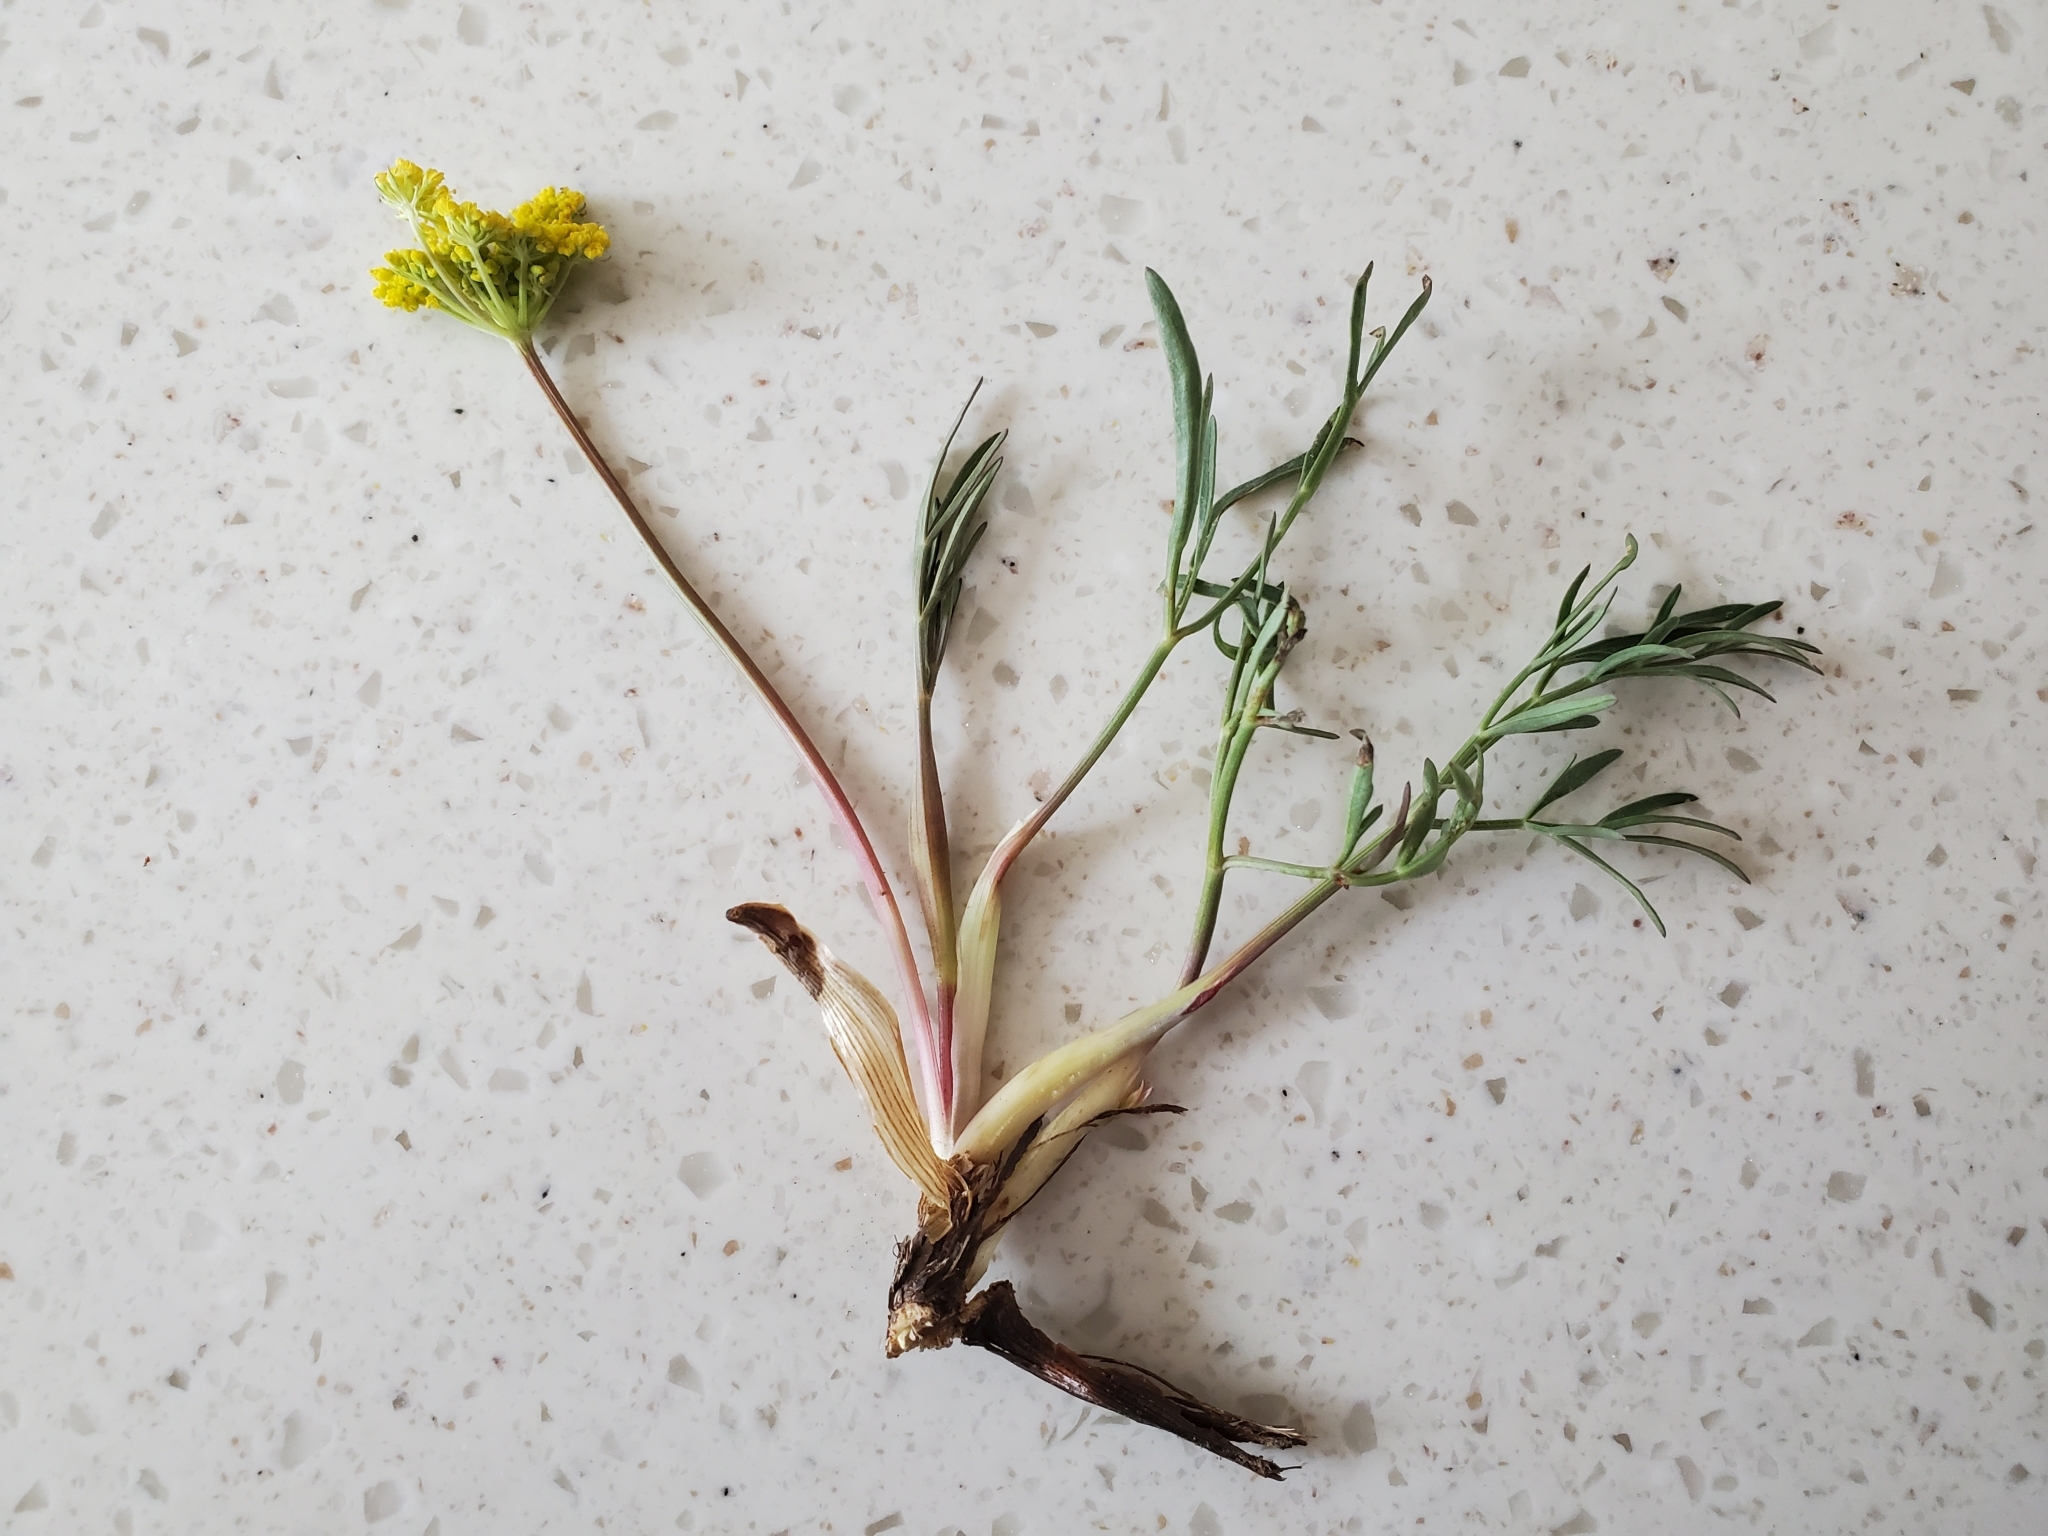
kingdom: Plantae
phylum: Tracheophyta
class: Magnoliopsida
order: Apiales
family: Apiaceae
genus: Cymopterus
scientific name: Cymopterus lemmonii
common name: Lemmon's spring-parsley
